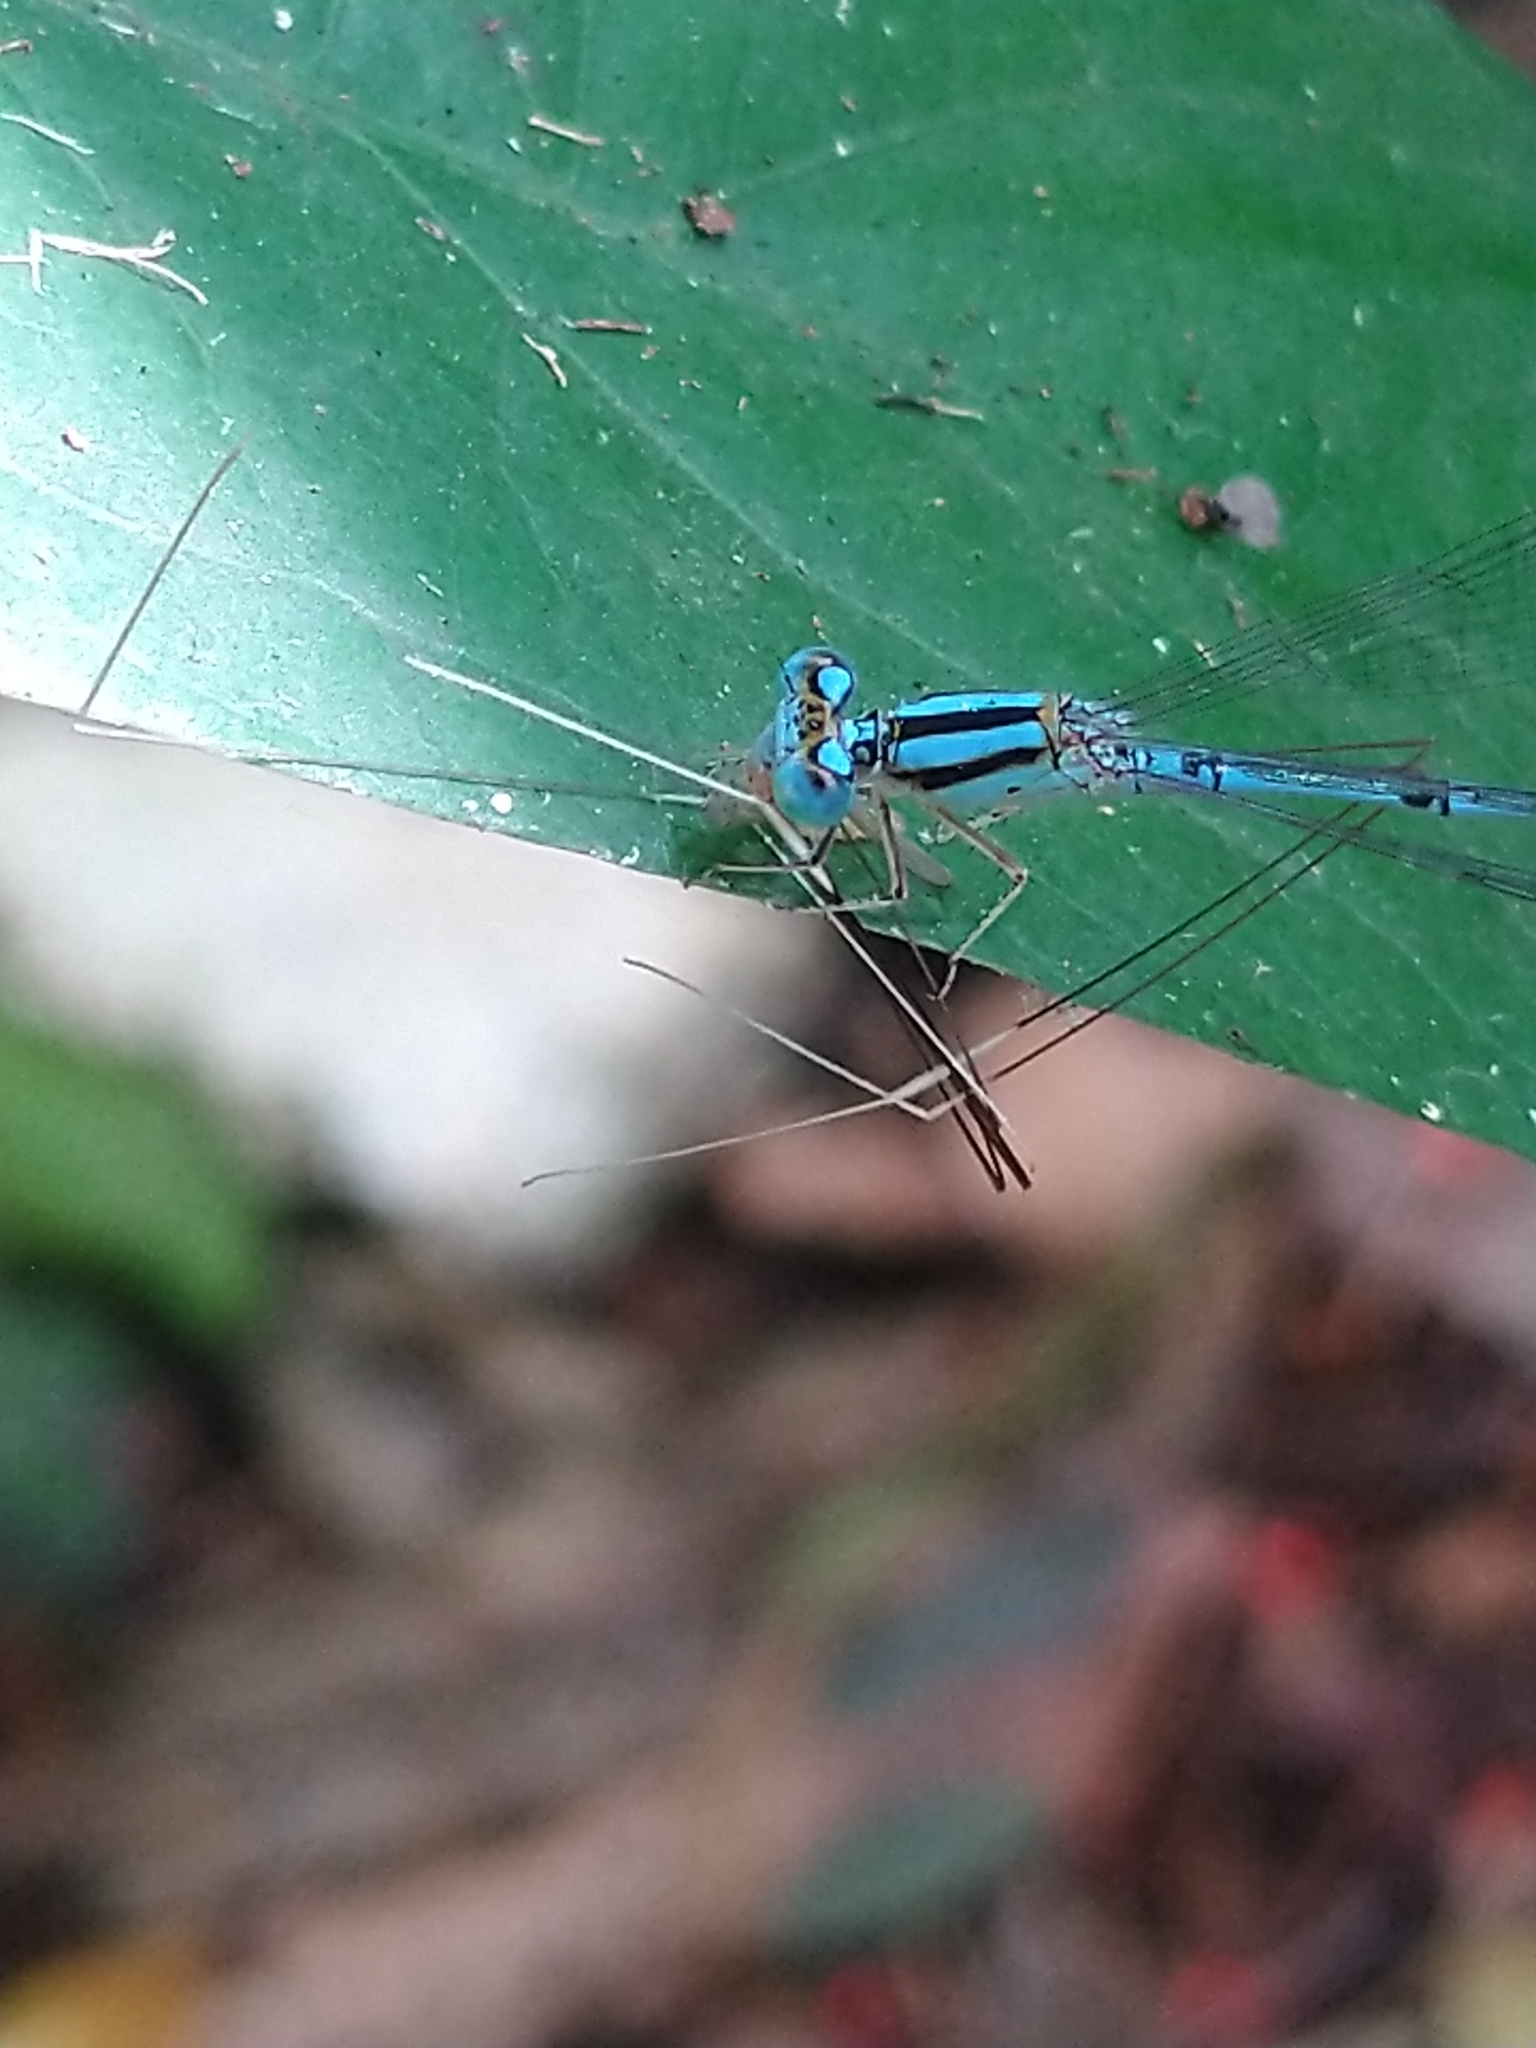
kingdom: Animalia
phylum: Arthropoda
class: Insecta
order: Odonata
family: Coenagrionidae
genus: Pseudagrion
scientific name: Pseudagrion microcephalum
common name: Blue riverdamsel
